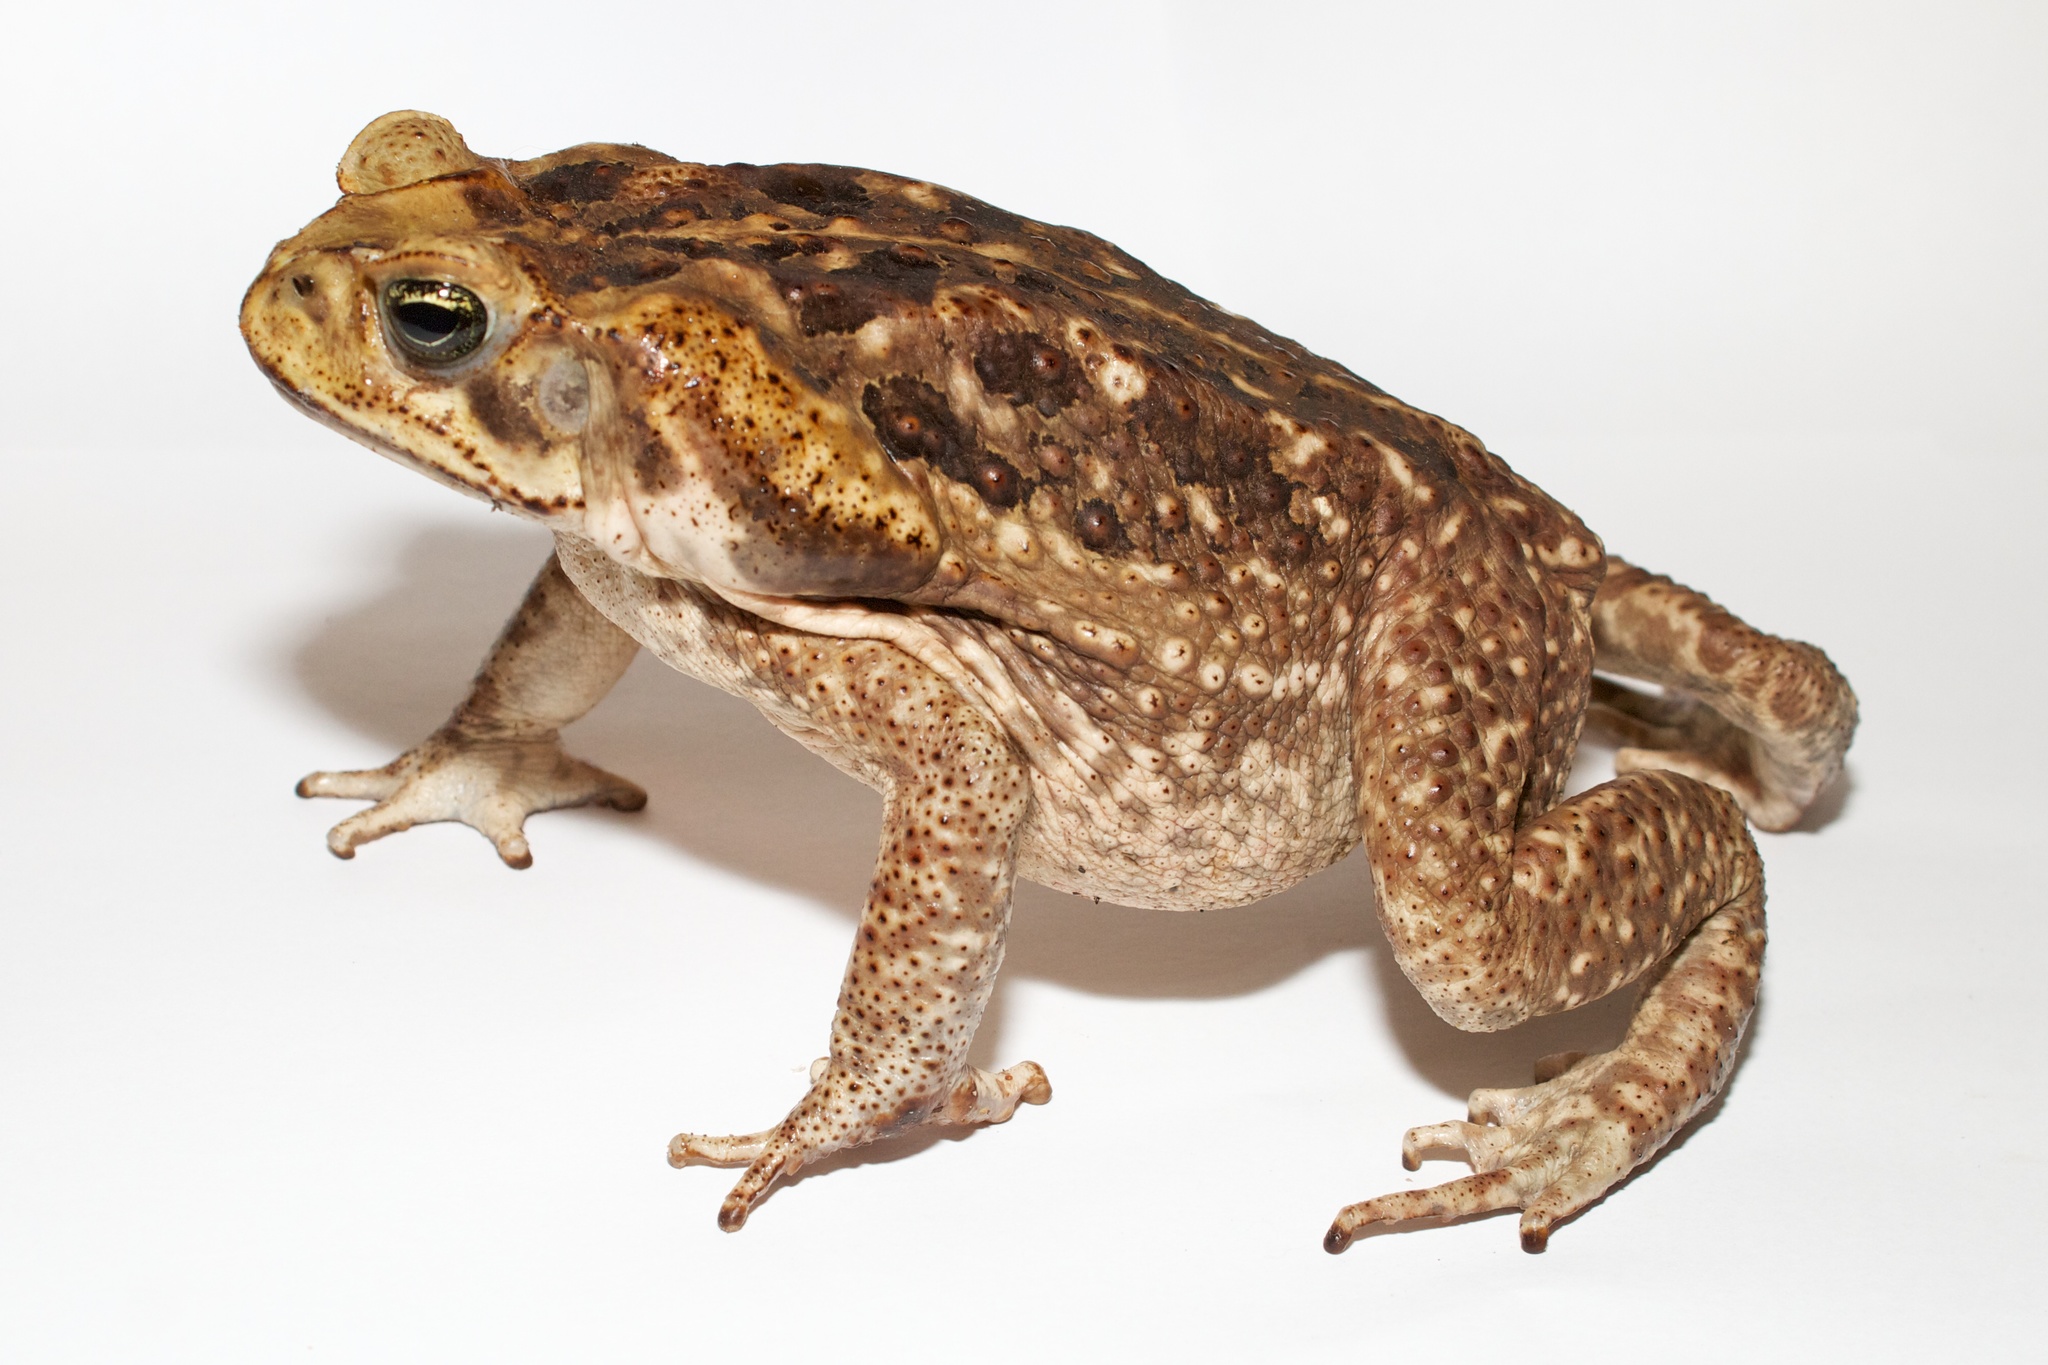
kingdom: Animalia
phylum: Chordata
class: Amphibia
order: Anura
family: Bufonidae
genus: Rhinella
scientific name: Rhinella horribilis
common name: Mesoamerican cane toad
